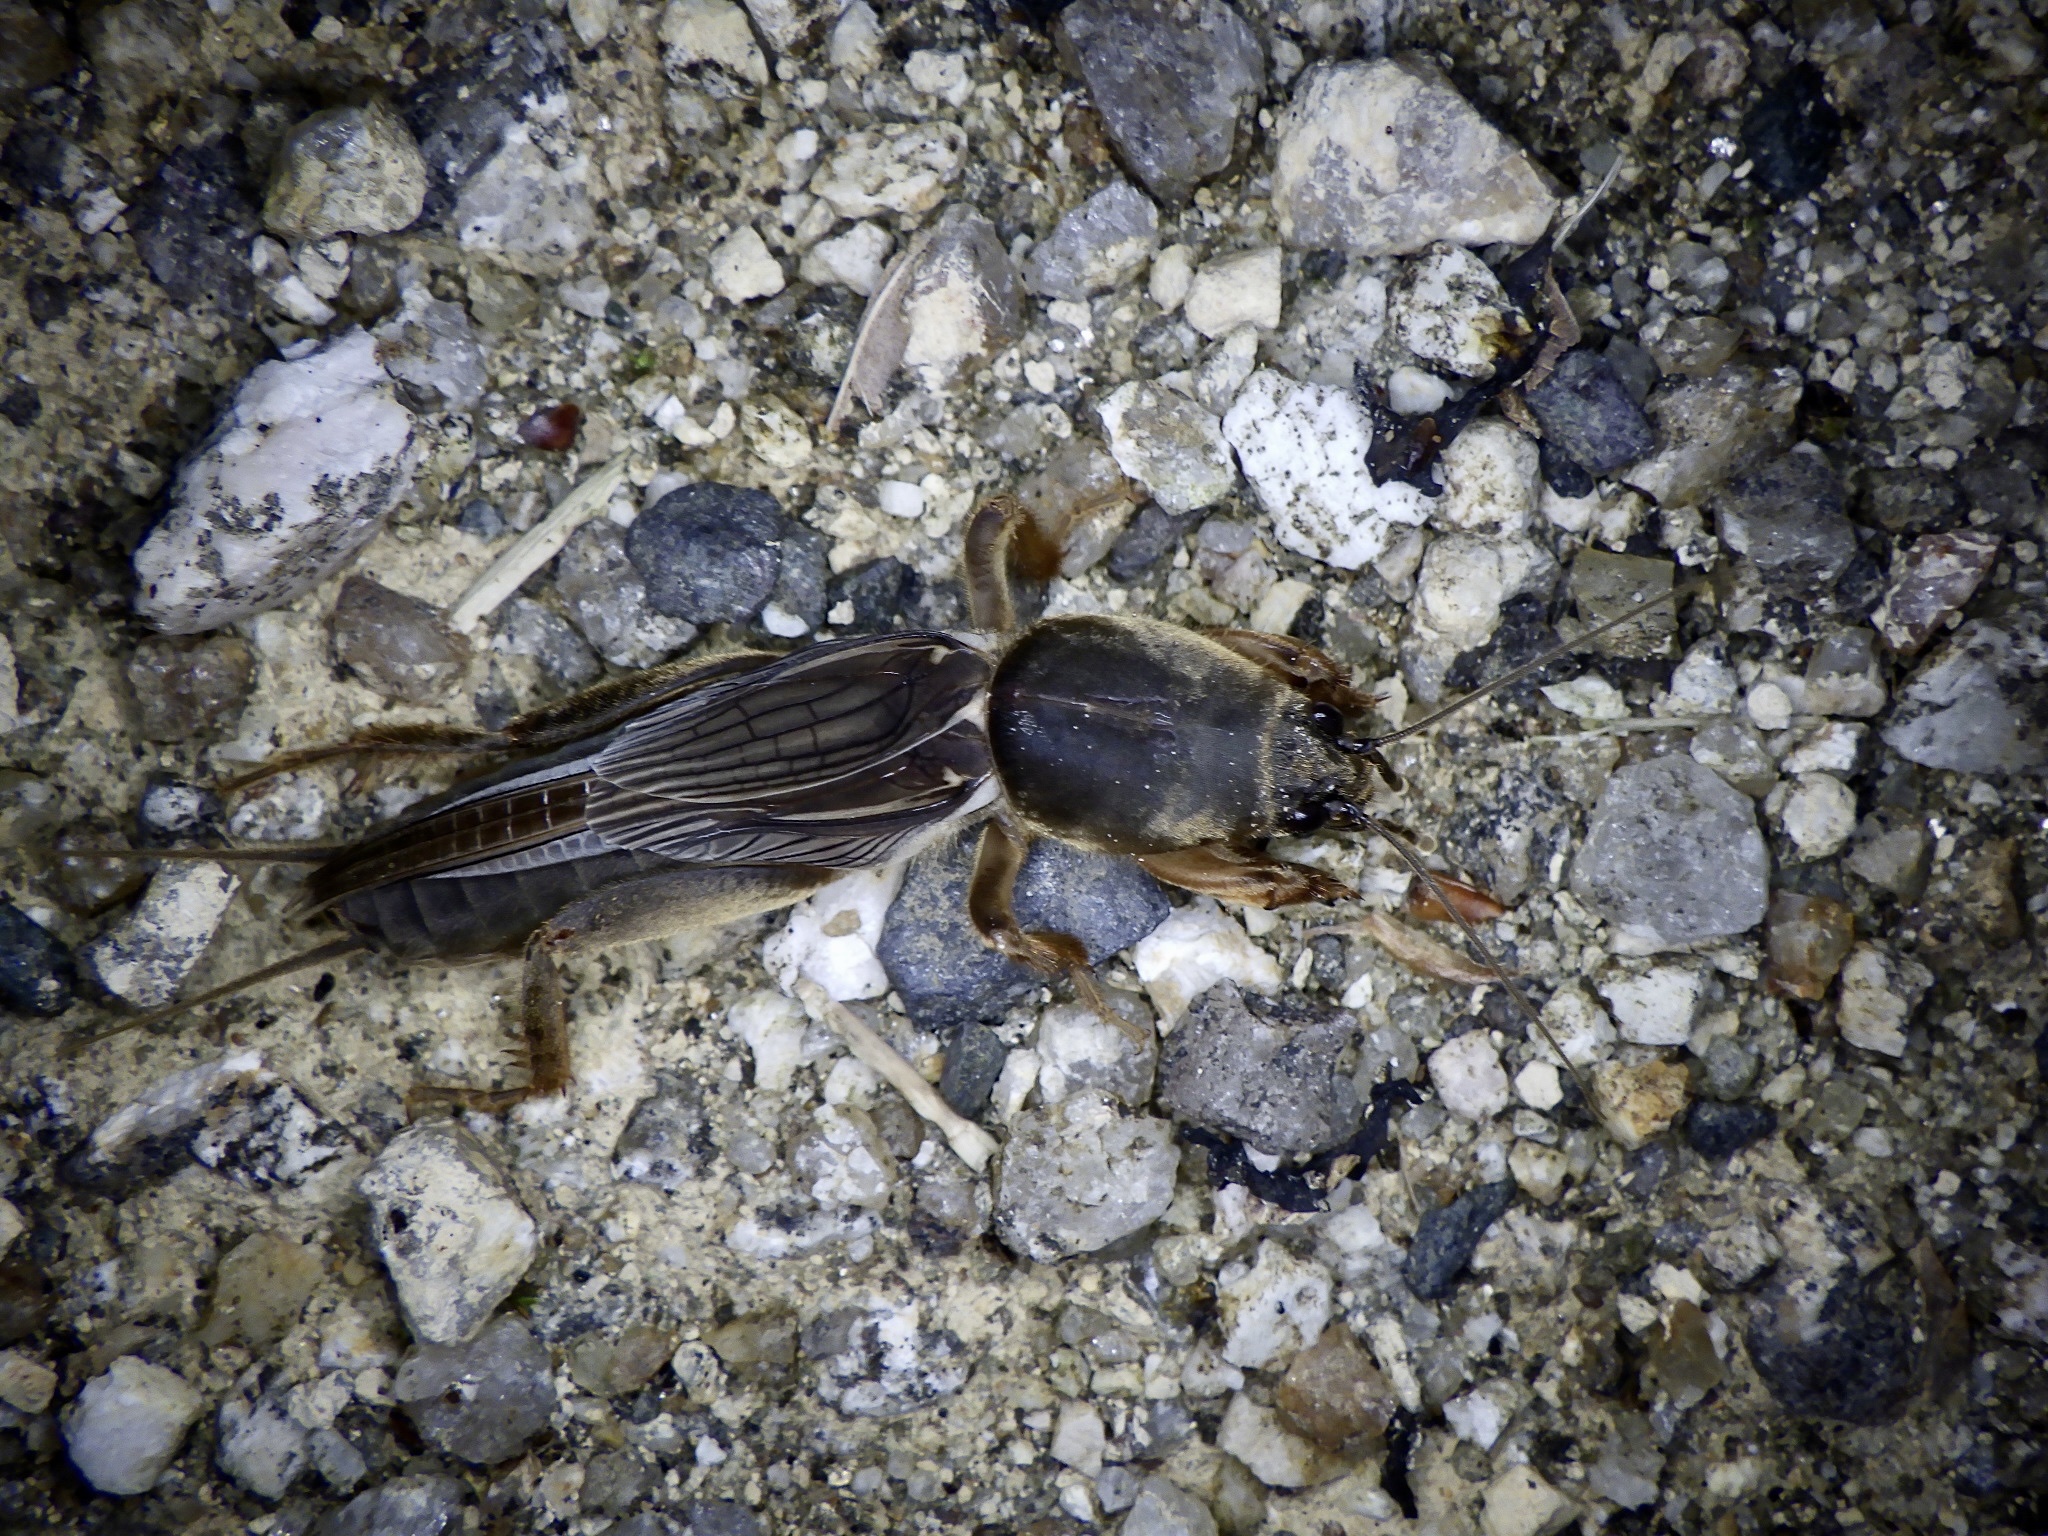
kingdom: Animalia
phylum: Arthropoda
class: Insecta
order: Orthoptera
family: Gryllotalpidae
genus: Gryllotalpa
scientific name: Gryllotalpa orientalis
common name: Grasshopper
